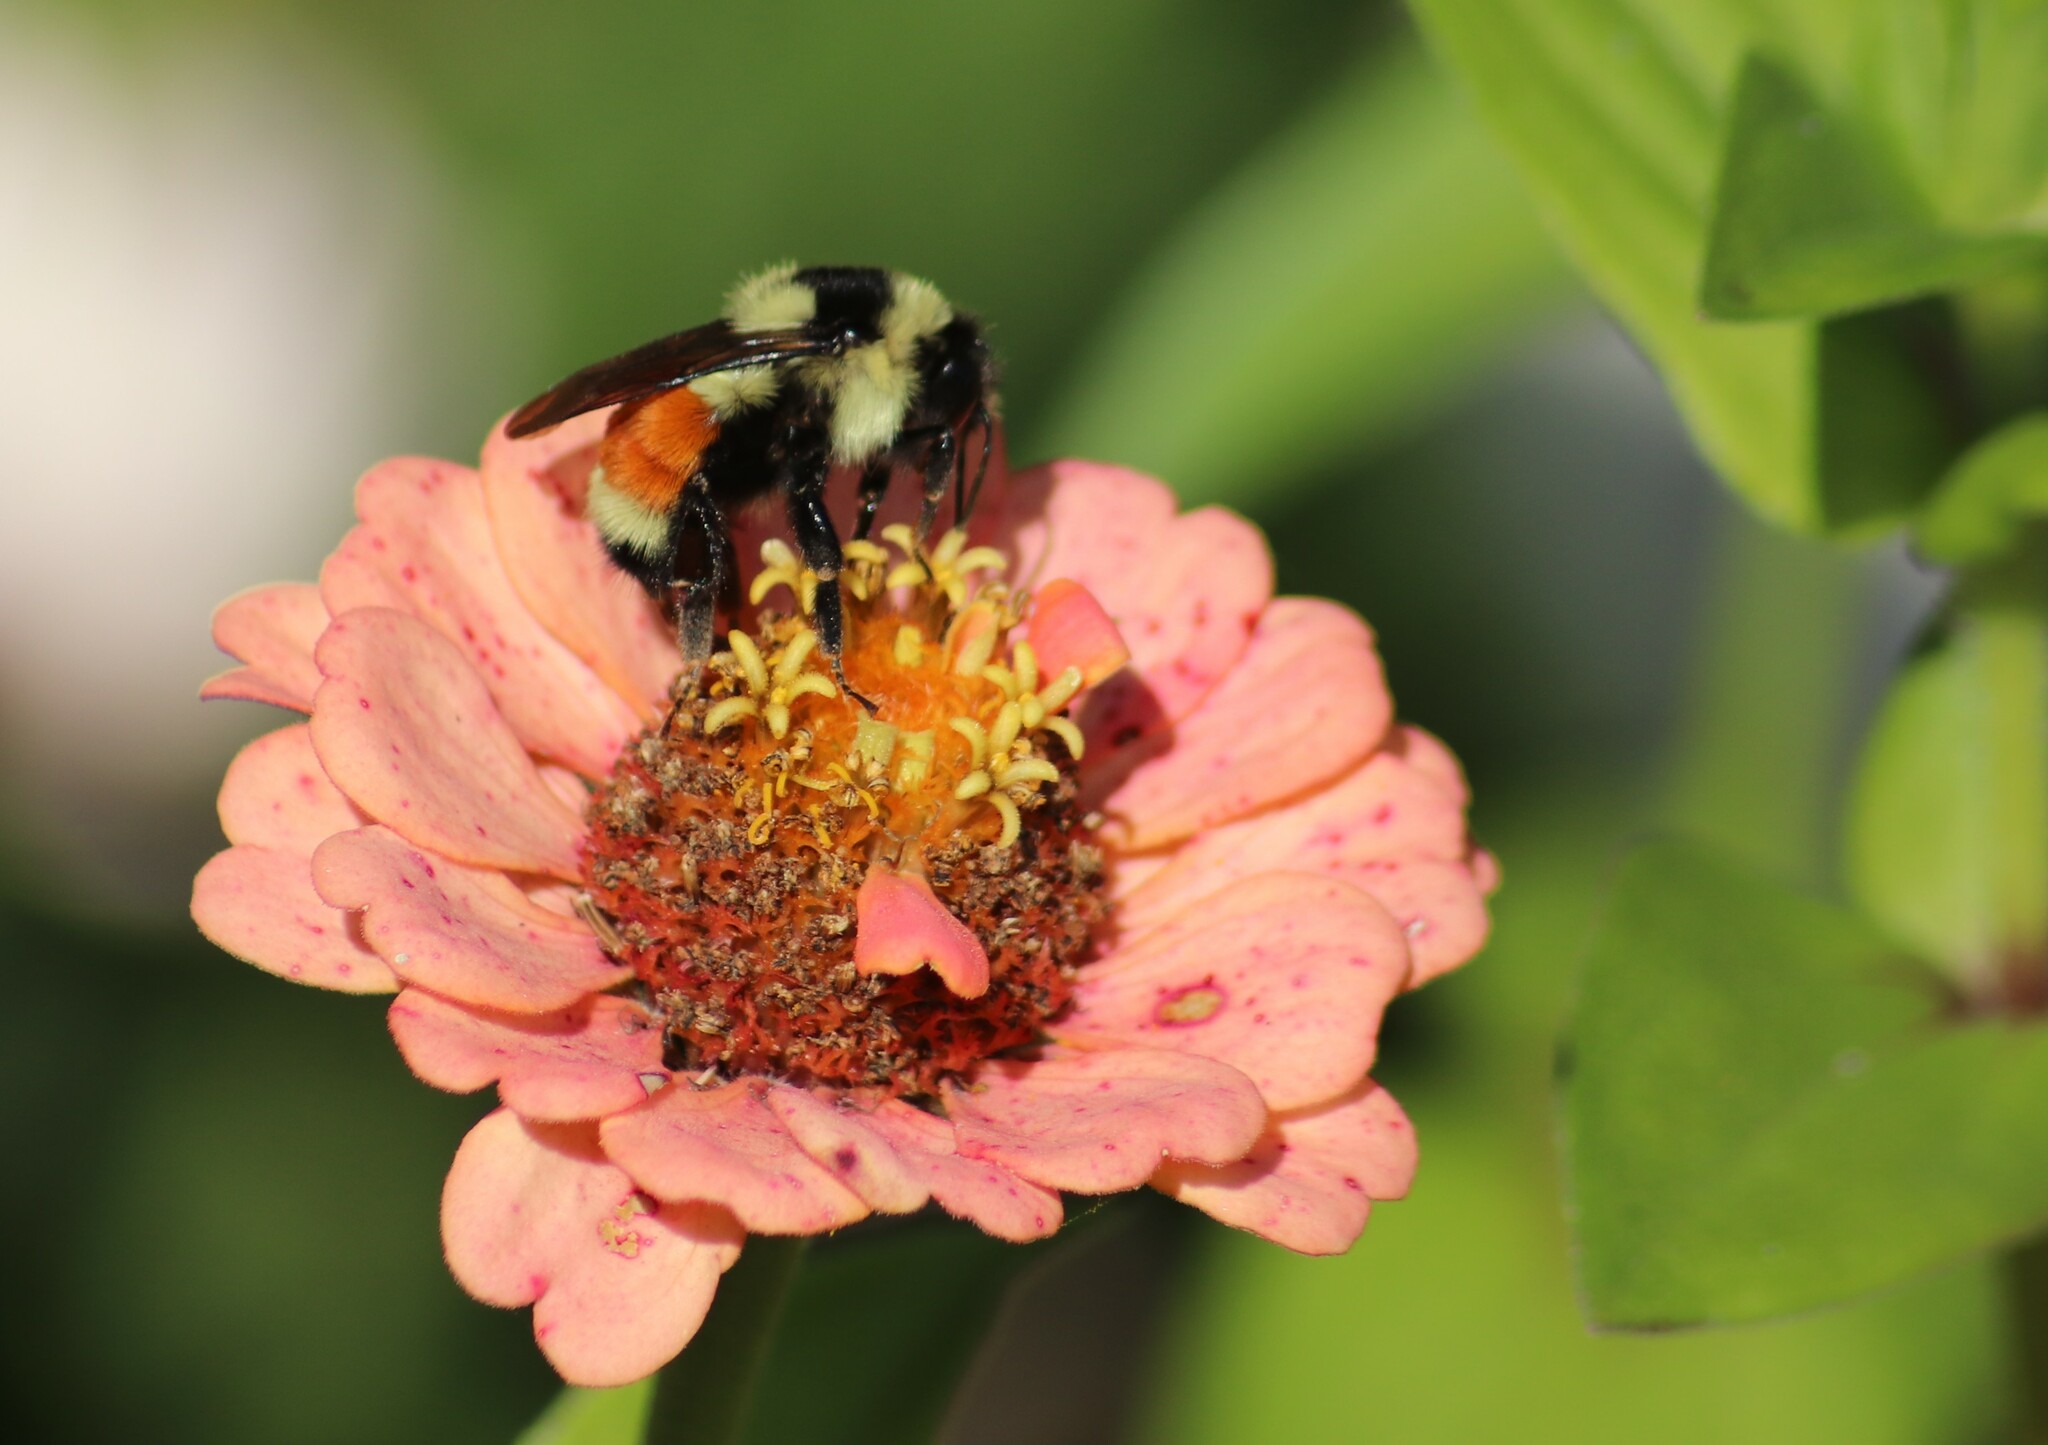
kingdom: Animalia
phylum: Arthropoda
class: Insecta
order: Hymenoptera
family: Apidae
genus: Bombus
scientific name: Bombus ternarius
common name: Tri-colored bumble bee
